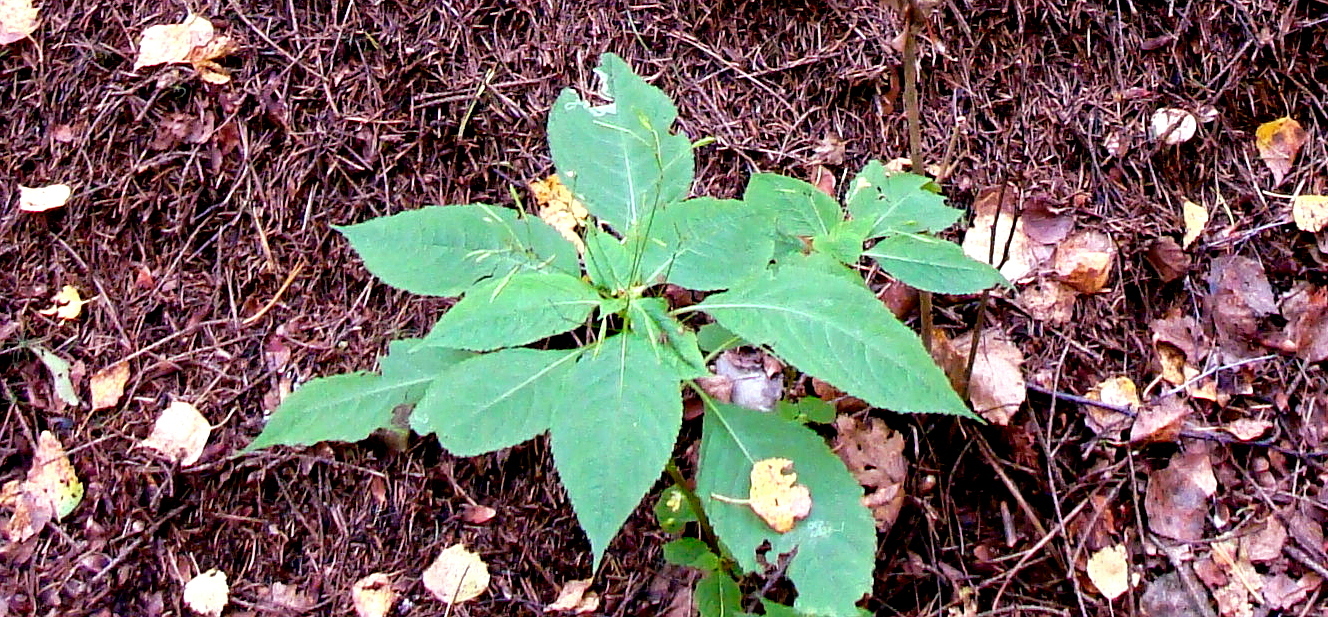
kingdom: Plantae
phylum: Tracheophyta
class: Magnoliopsida
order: Ericales
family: Balsaminaceae
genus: Impatiens
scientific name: Impatiens parviflora
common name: Small balsam
